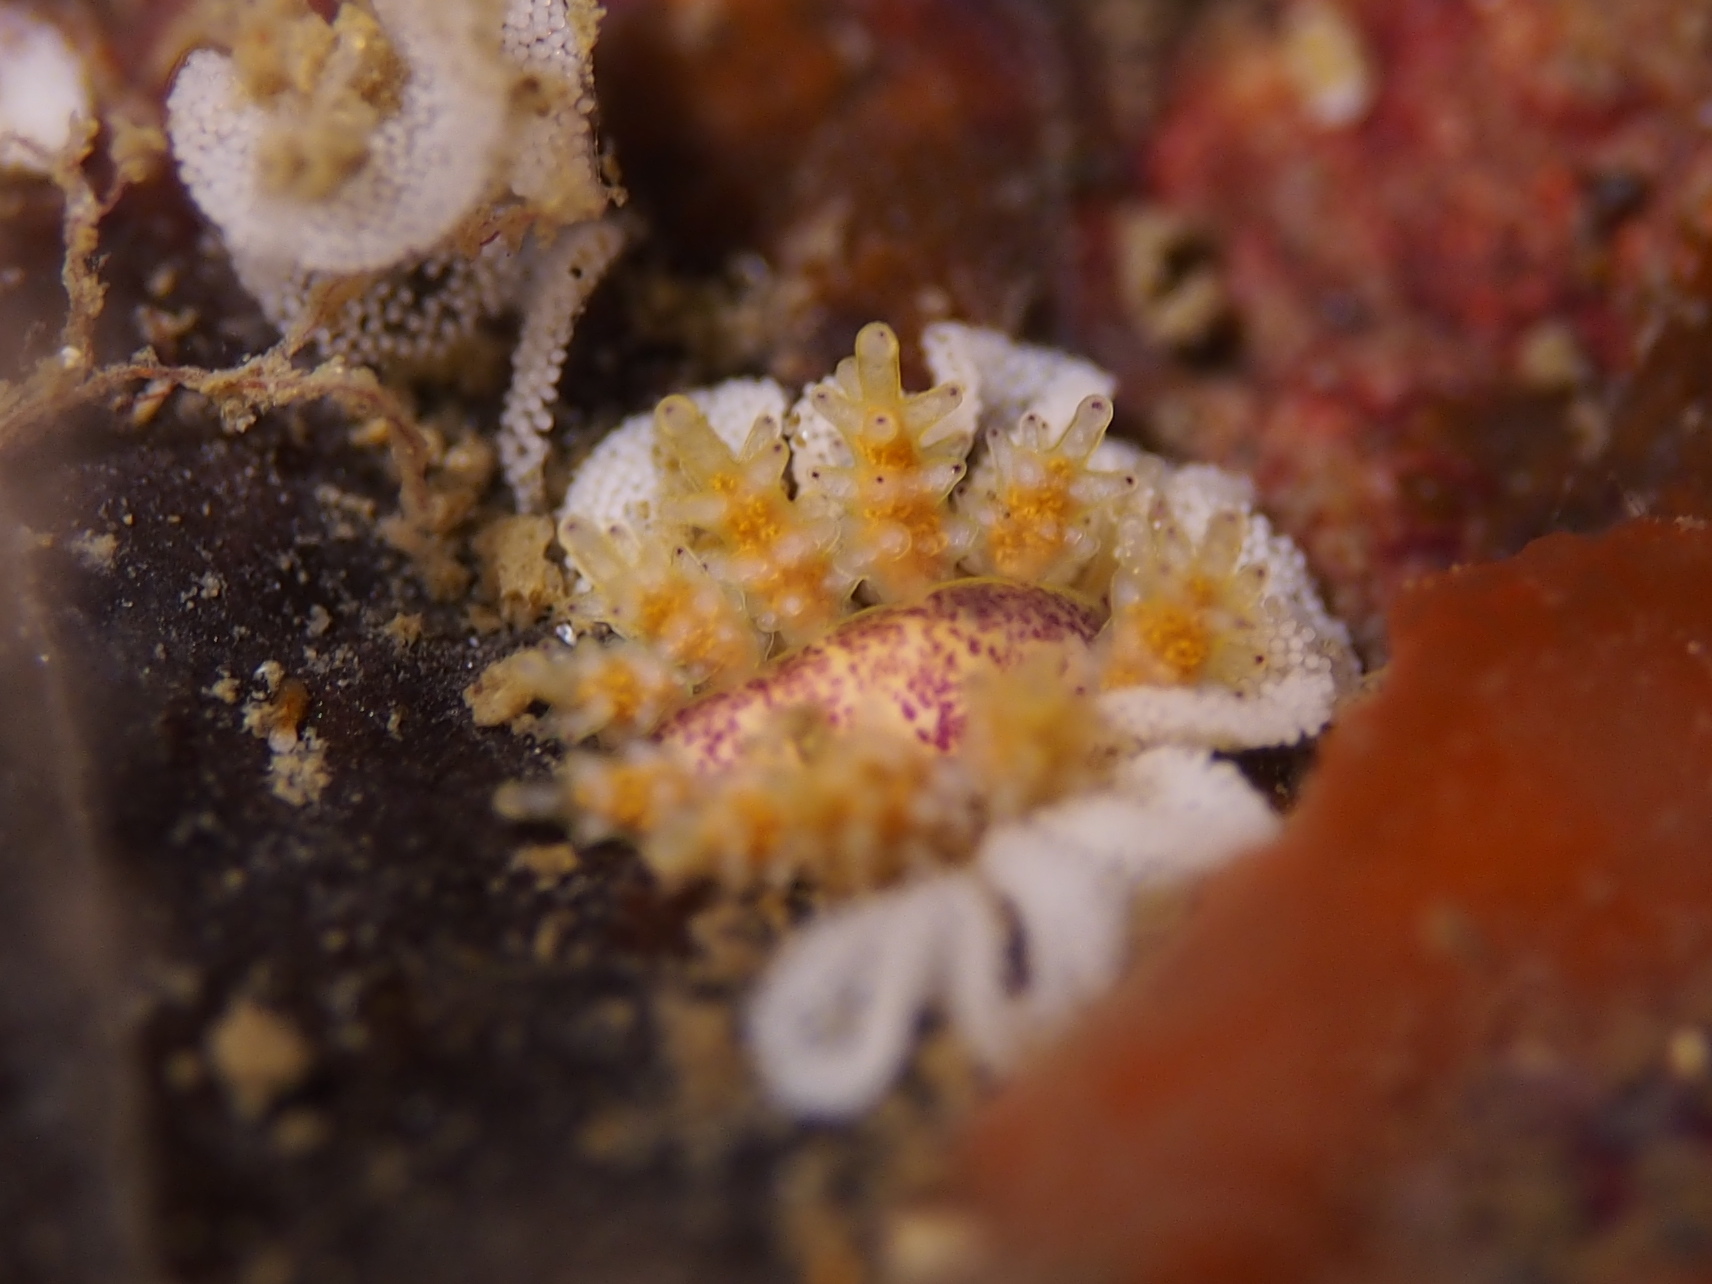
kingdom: Animalia
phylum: Mollusca
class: Gastropoda
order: Nudibranchia
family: Dotidae
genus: Doto
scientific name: Doto dunnei
